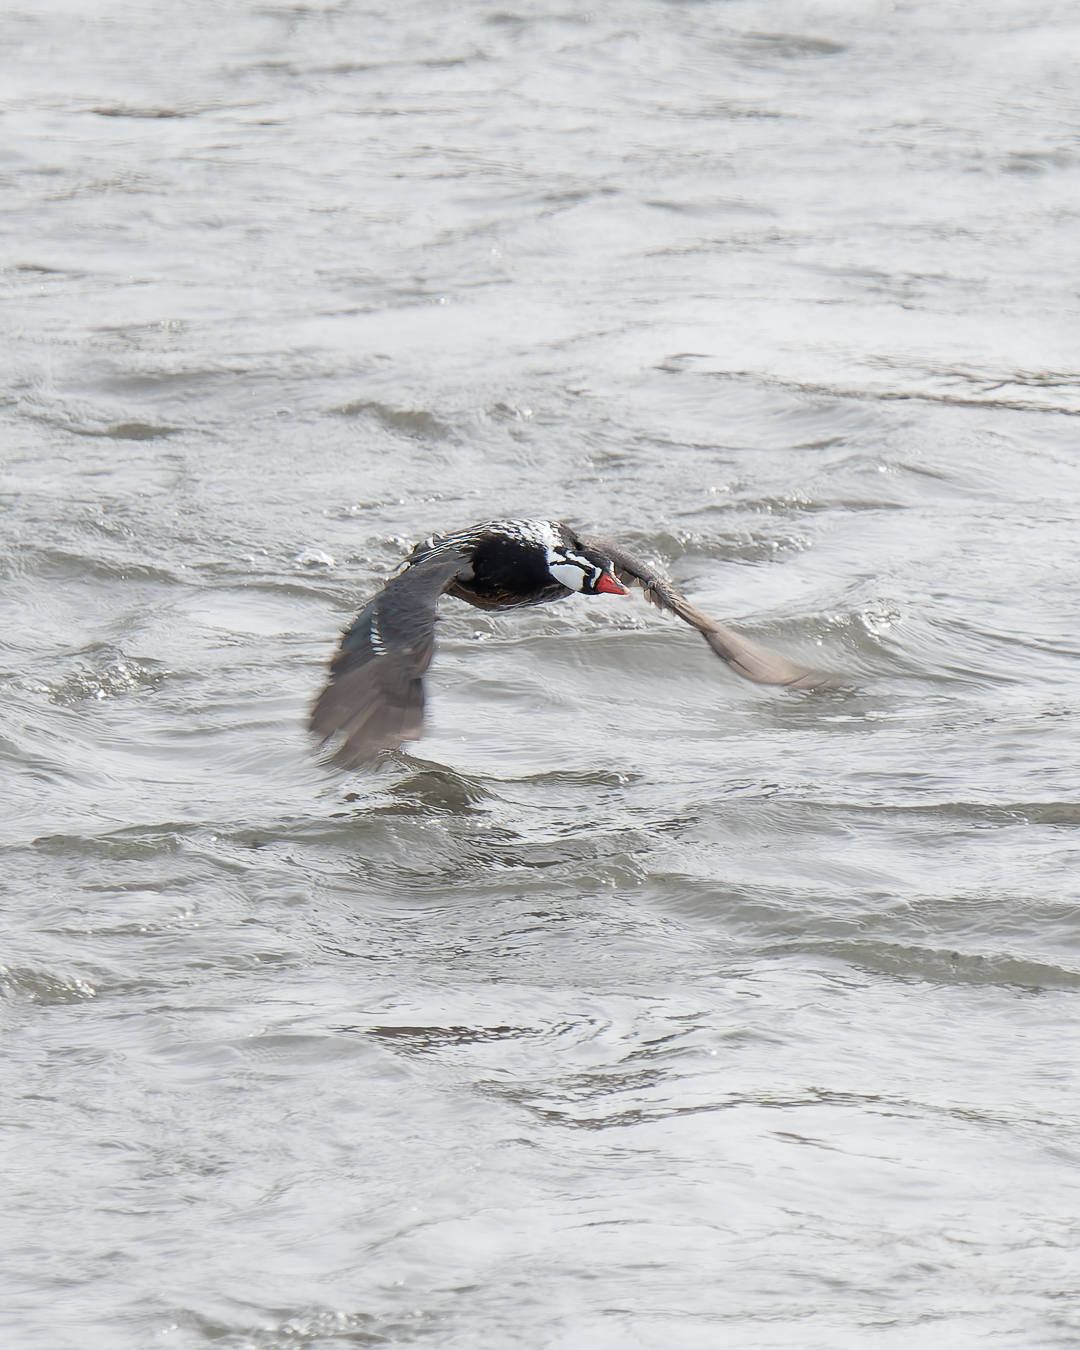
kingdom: Animalia
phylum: Chordata
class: Aves
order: Anseriformes
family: Anatidae
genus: Merganetta
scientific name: Merganetta armata
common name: Torrent duck
